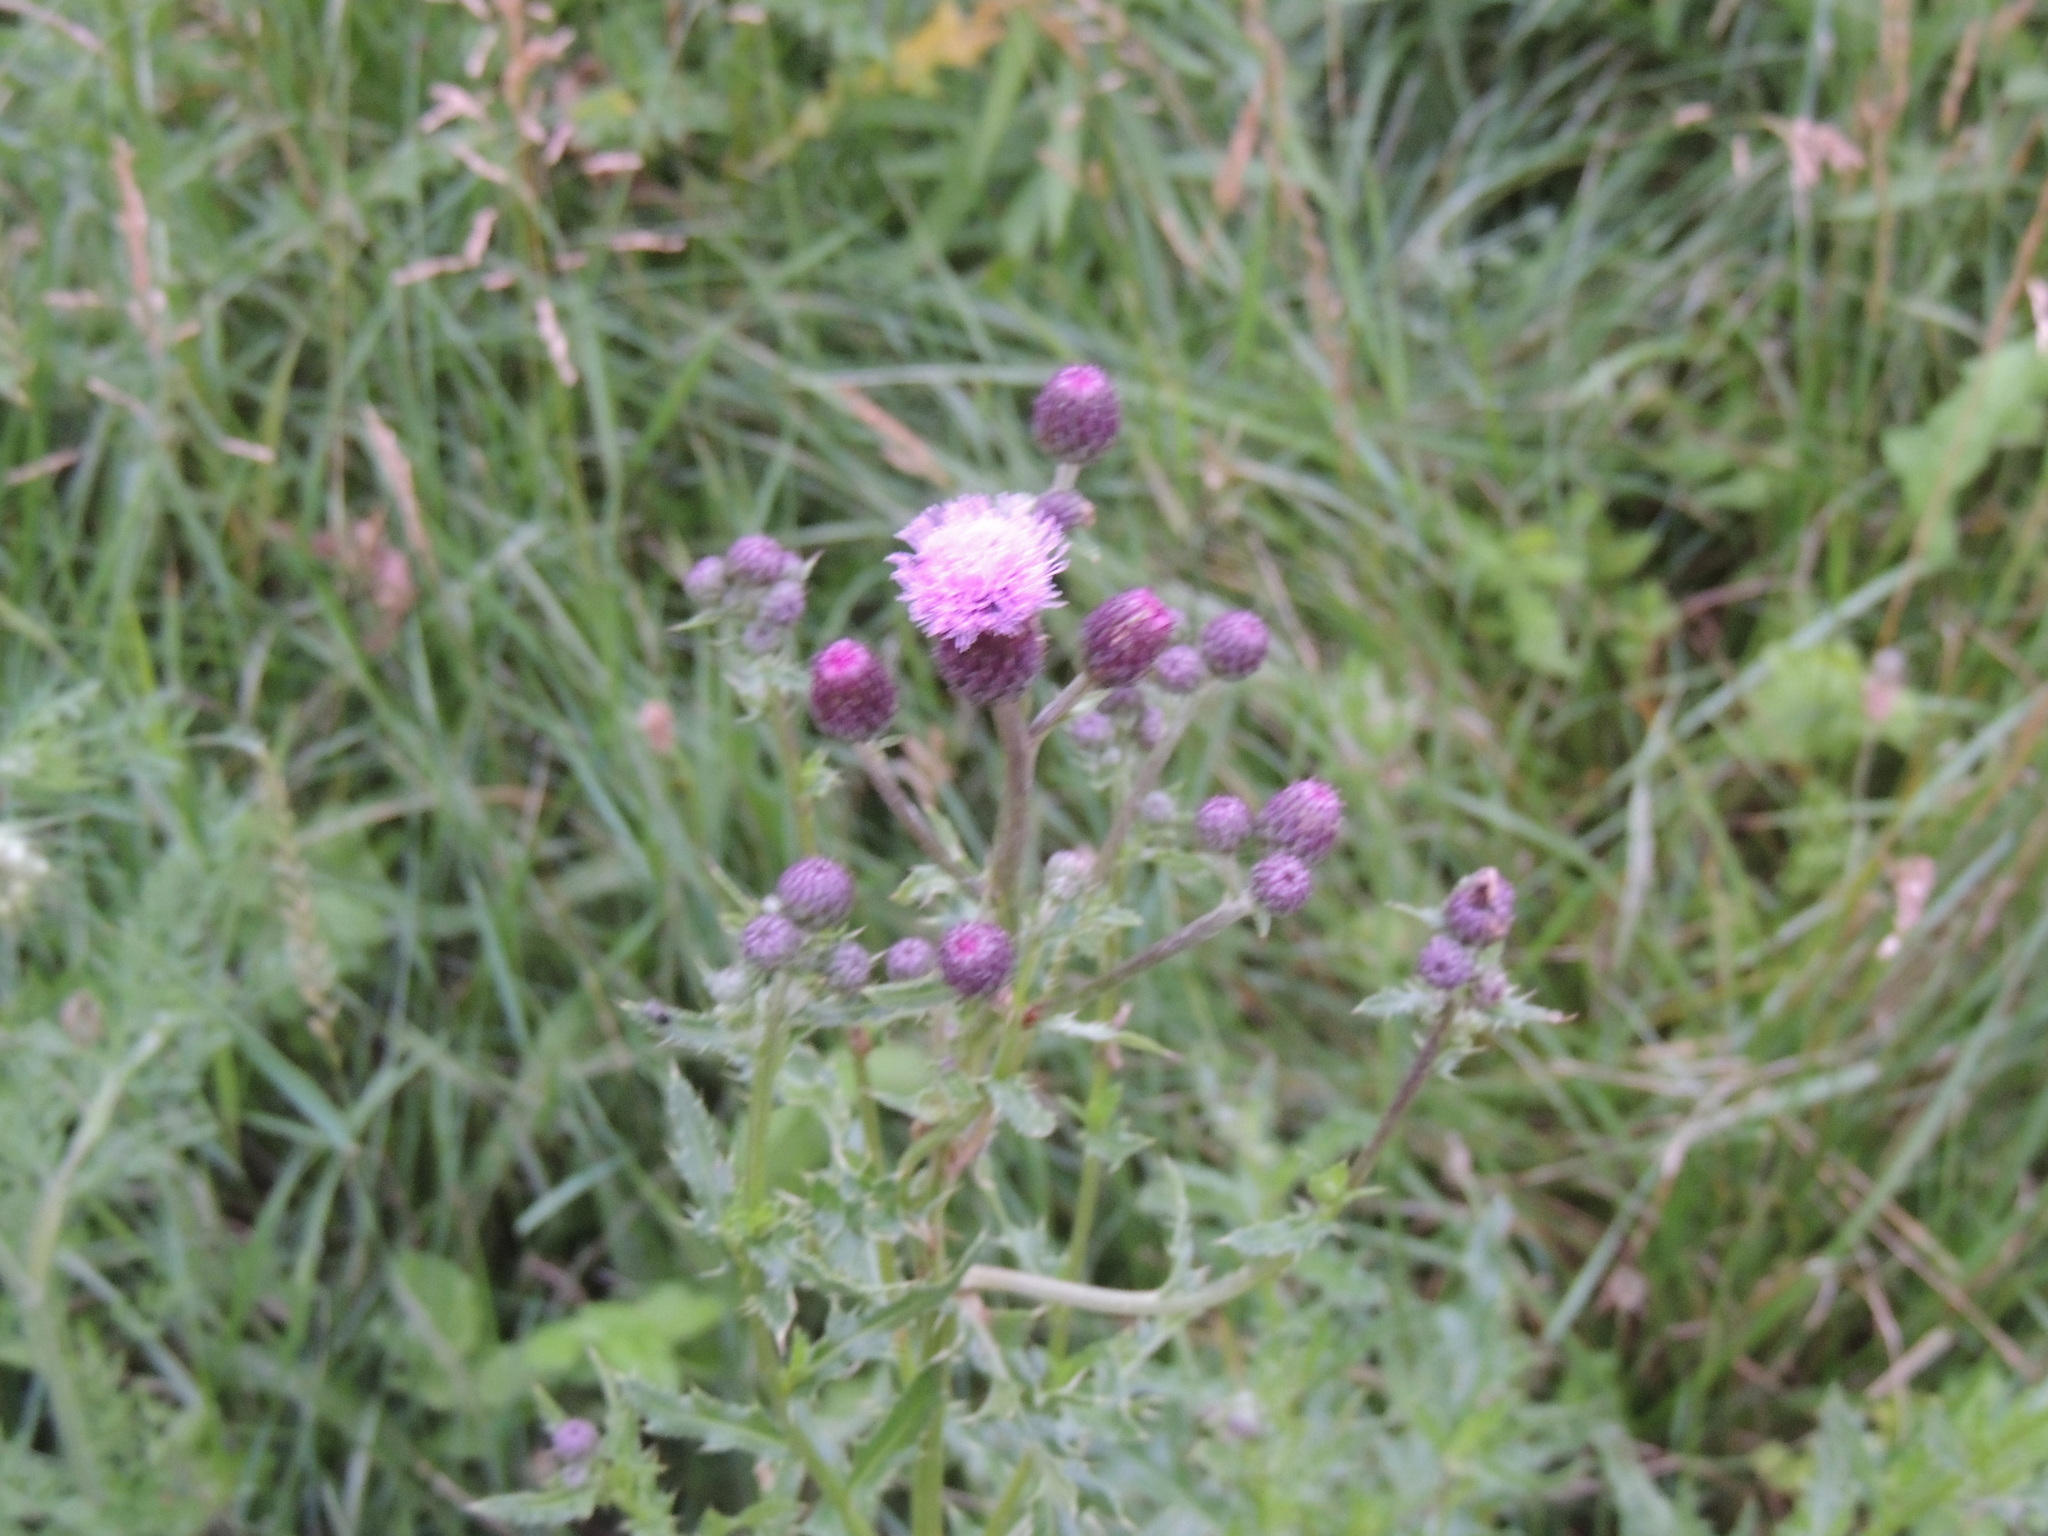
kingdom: Plantae
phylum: Tracheophyta
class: Magnoliopsida
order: Asterales
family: Asteraceae
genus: Cirsium
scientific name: Cirsium arvense
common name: Creeping thistle
